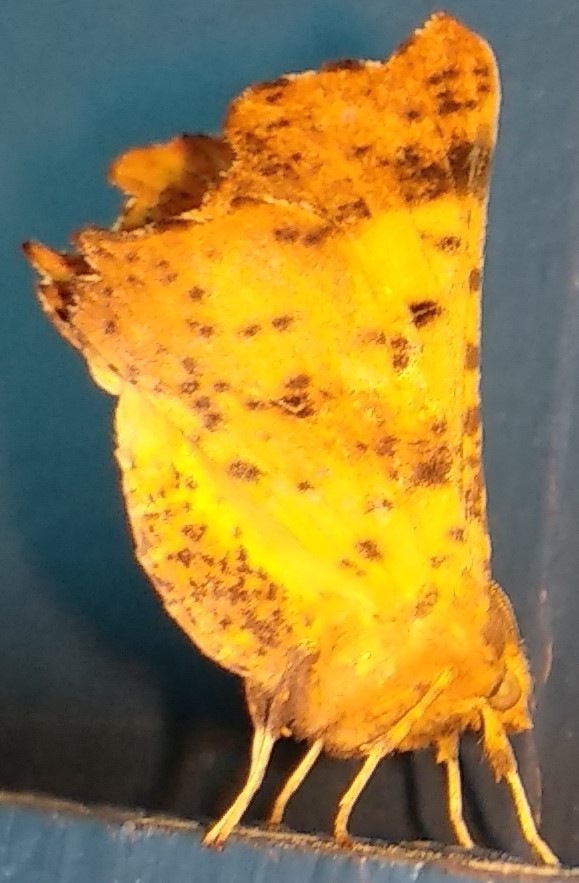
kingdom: Animalia
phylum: Arthropoda
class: Insecta
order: Lepidoptera
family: Geometridae
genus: Ennomos
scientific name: Ennomos magnaria
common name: Maple spanworm
